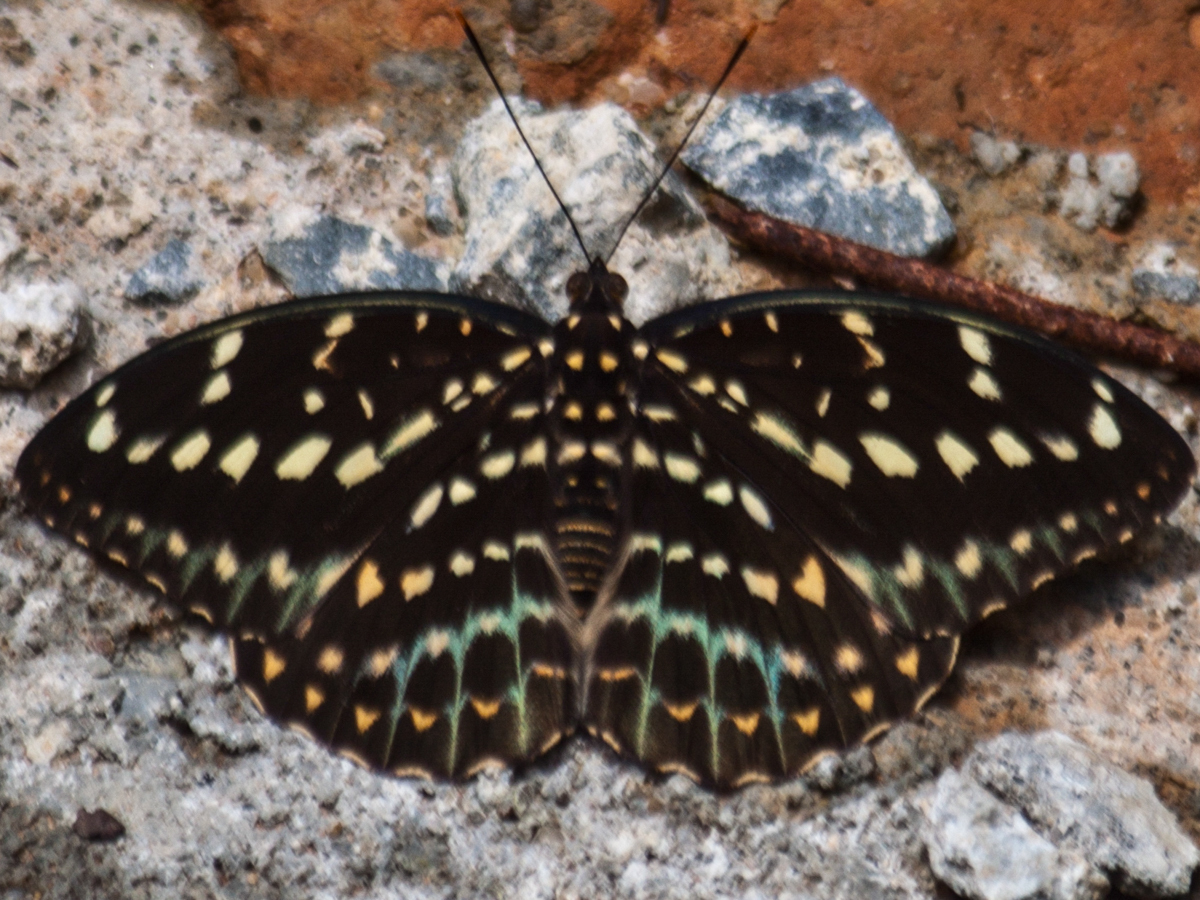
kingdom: Animalia
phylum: Arthropoda
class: Insecta
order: Lepidoptera
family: Nymphalidae
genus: Lexias
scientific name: Lexias pardalis
